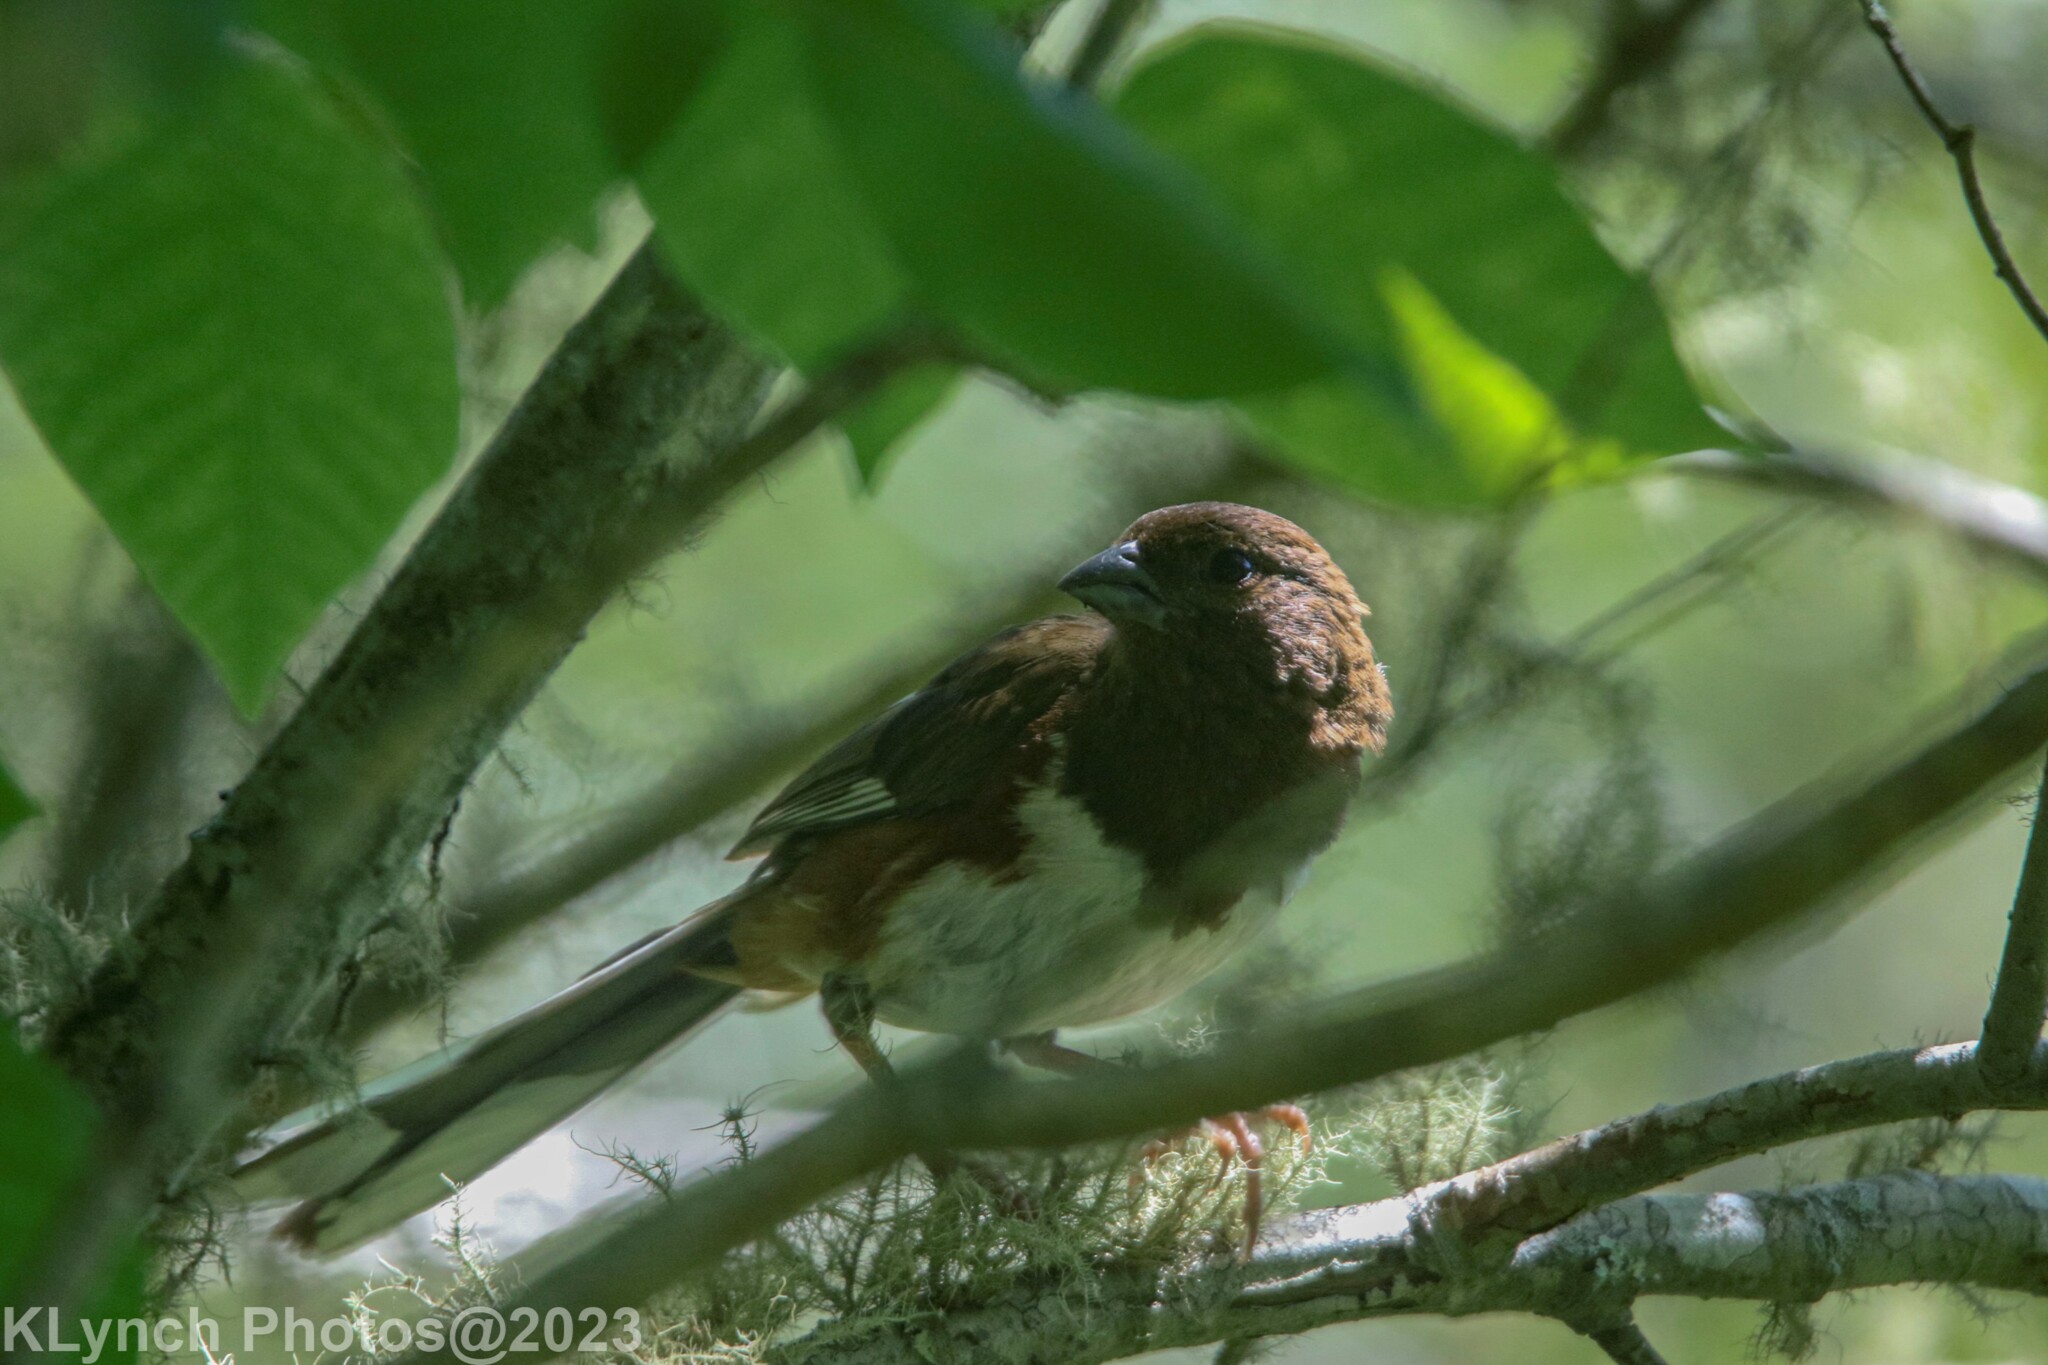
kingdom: Animalia
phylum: Chordata
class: Aves
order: Passeriformes
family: Passerellidae
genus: Pipilo
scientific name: Pipilo erythrophthalmus
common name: Eastern towhee
